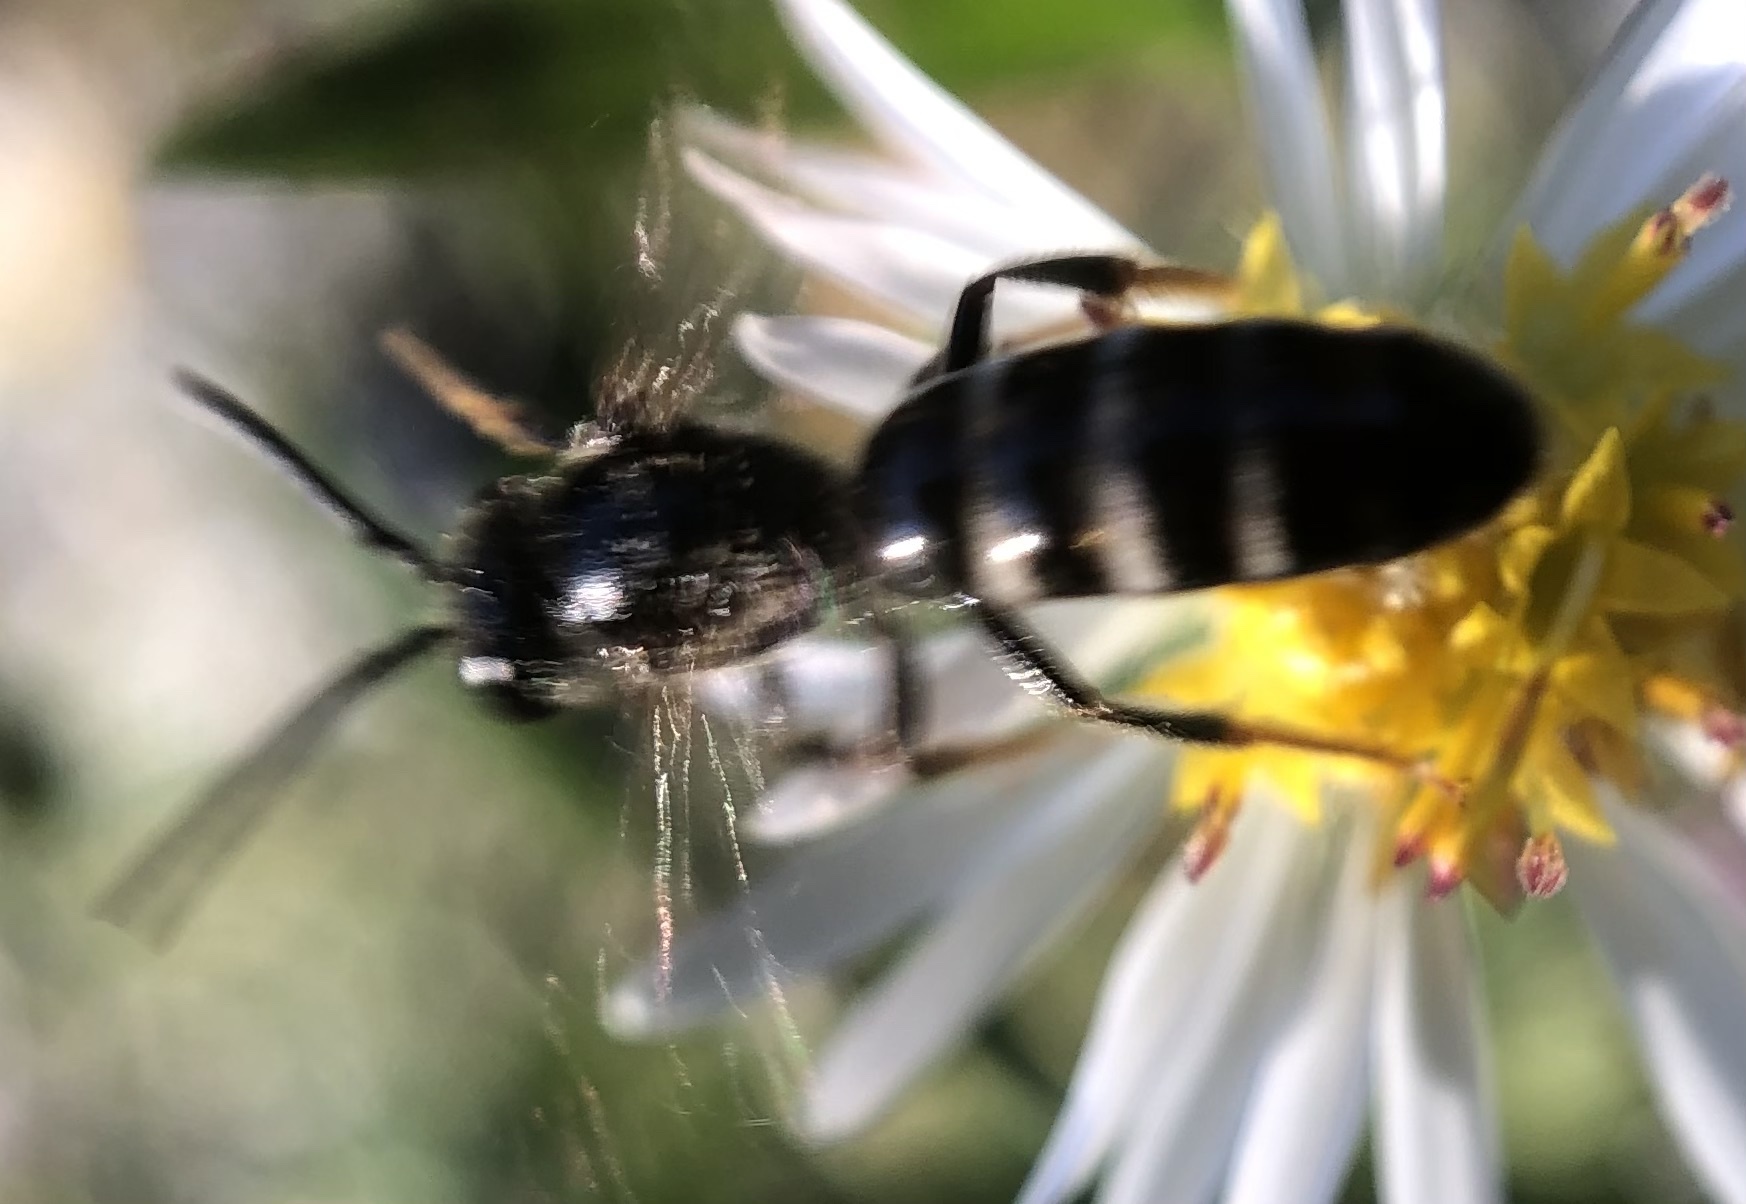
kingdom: Animalia
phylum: Arthropoda
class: Insecta
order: Hymenoptera
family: Halictidae
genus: Lasioglossum
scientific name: Lasioglossum fuscipenne
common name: Brown-winged sweat bee
